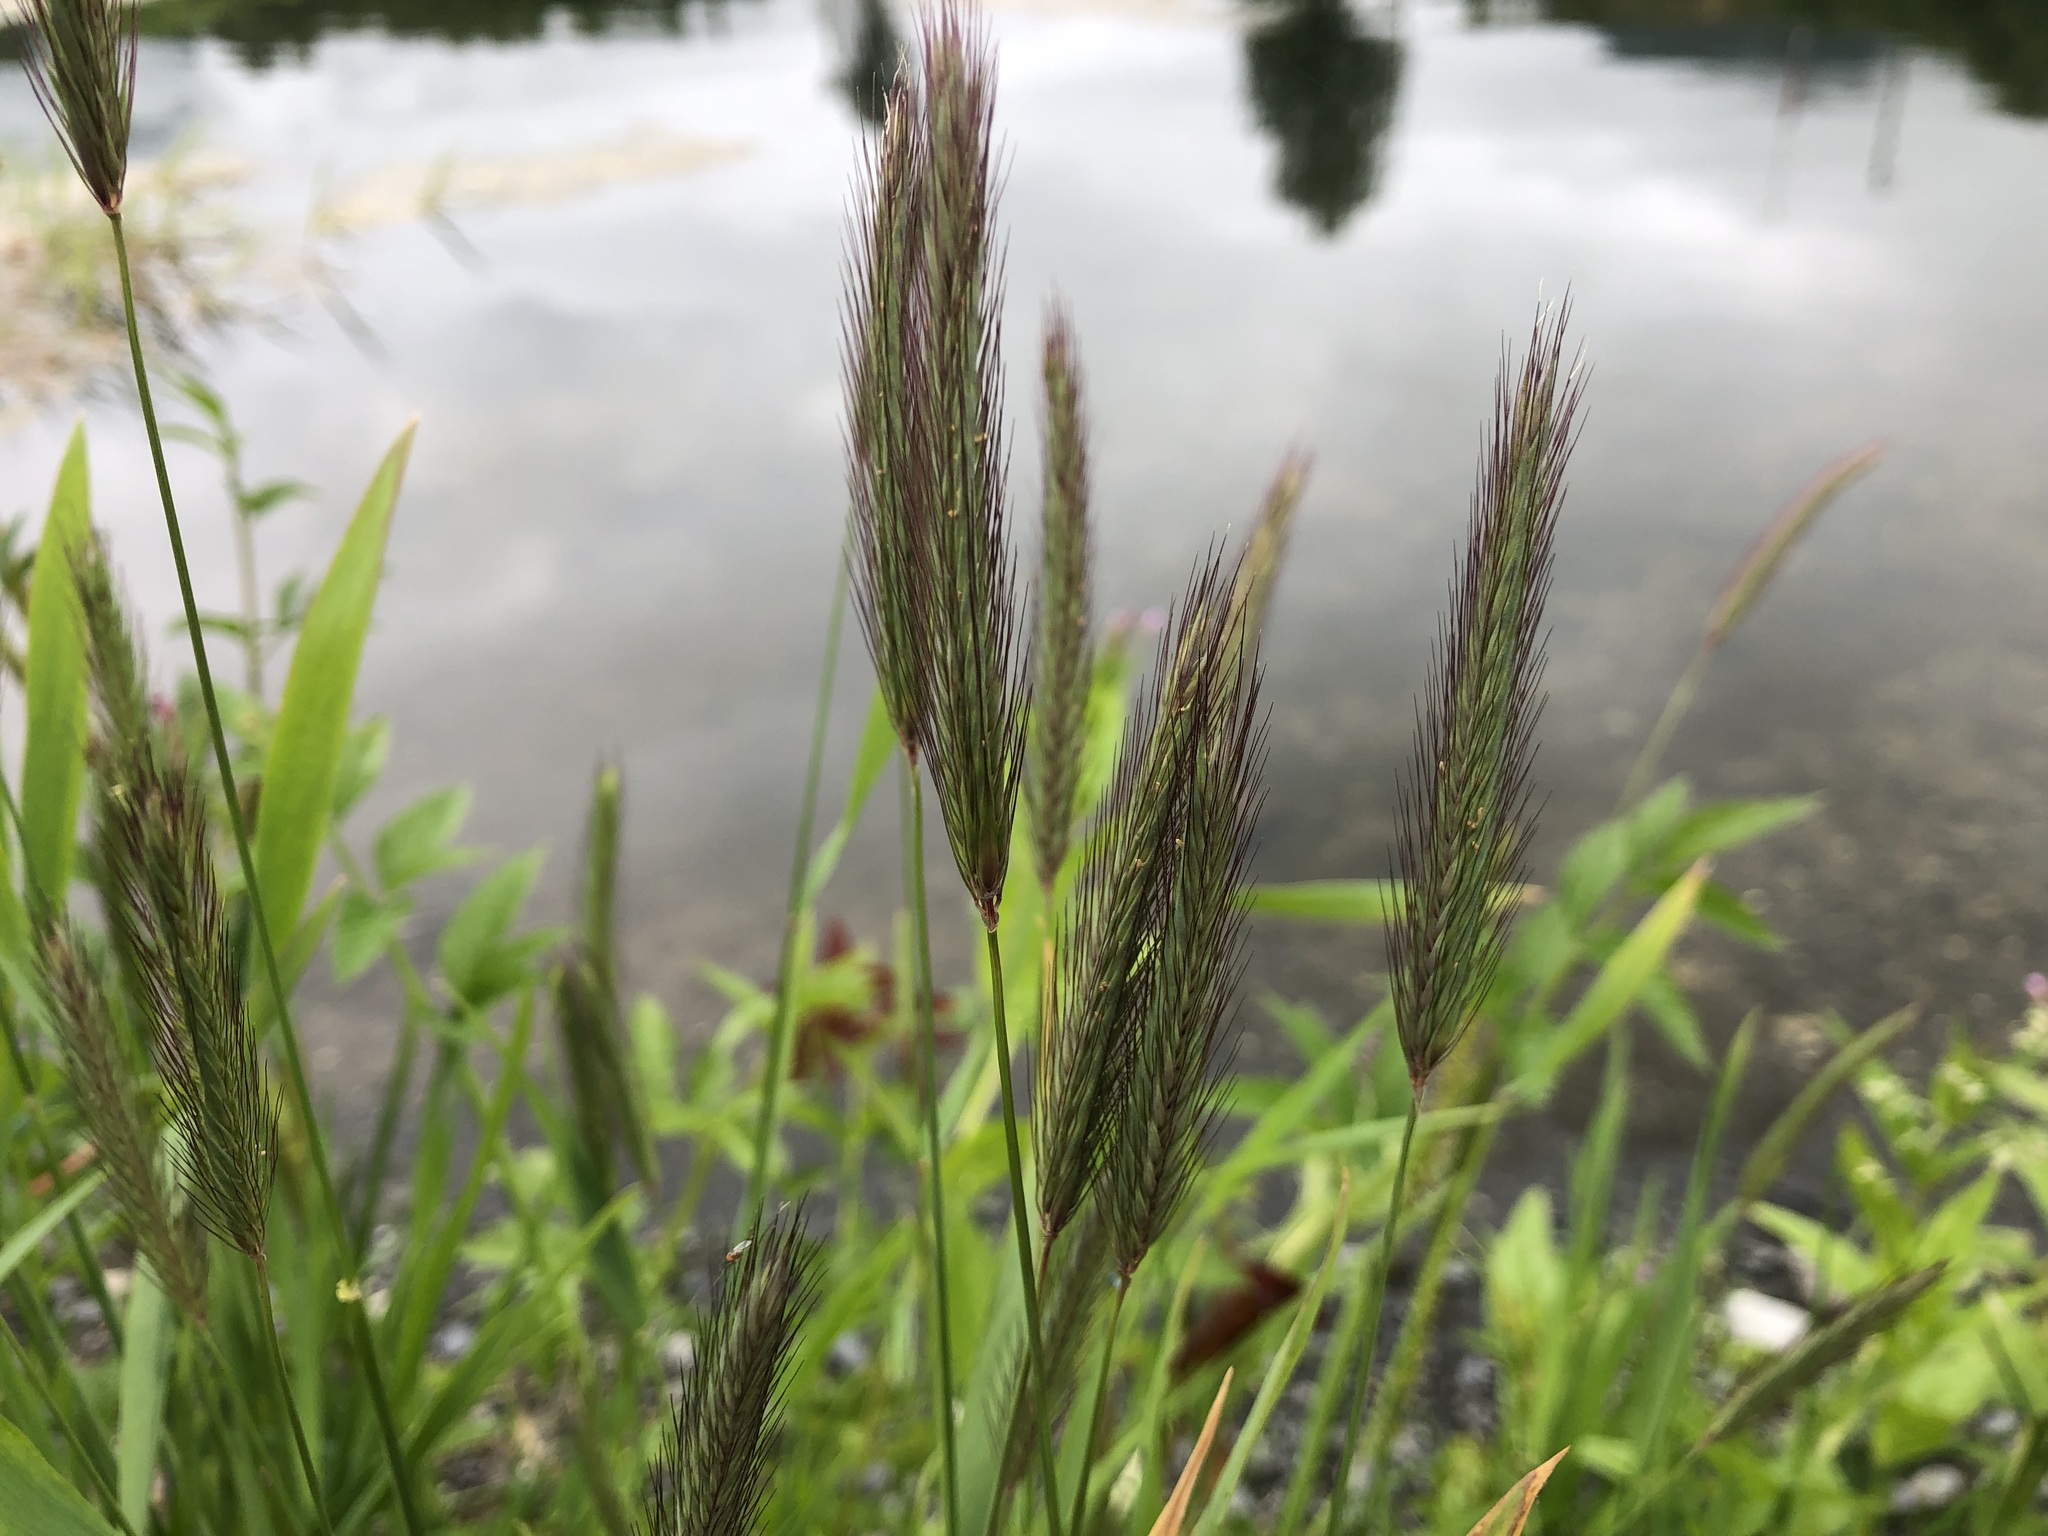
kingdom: Plantae
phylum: Tracheophyta
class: Liliopsida
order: Poales
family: Poaceae
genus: Hordeum
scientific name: Hordeum brachyantherum
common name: Meadow barley
